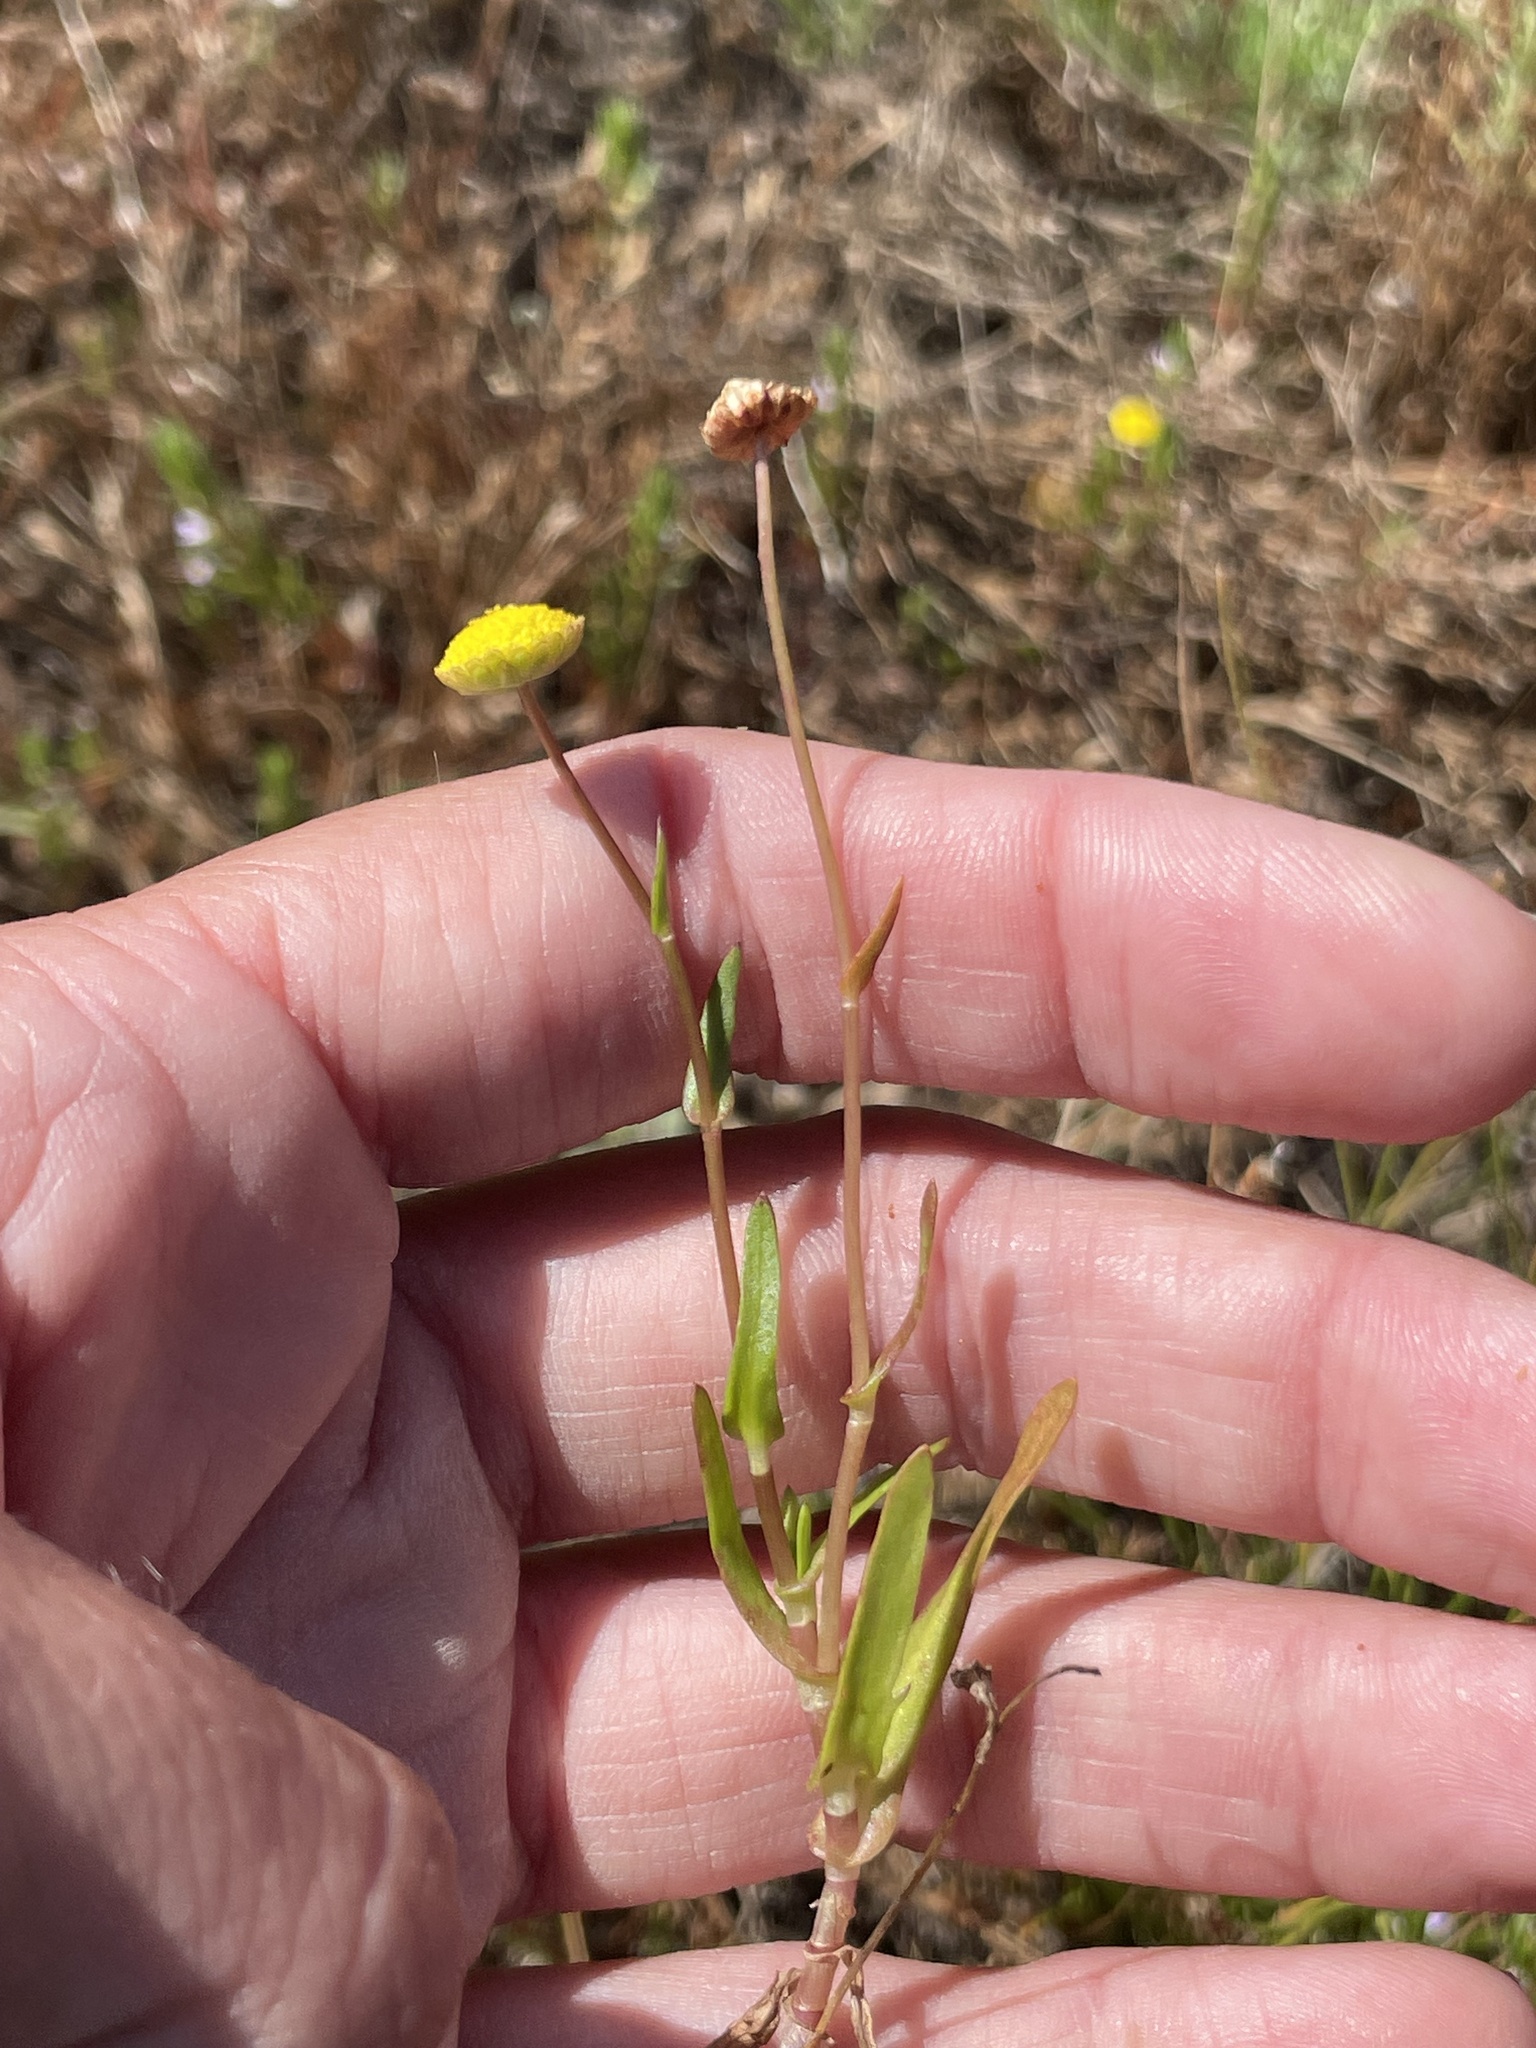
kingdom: Plantae
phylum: Tracheophyta
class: Magnoliopsida
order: Asterales
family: Asteraceae
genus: Cotula
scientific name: Cotula coronopifolia
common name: Buttonweed
